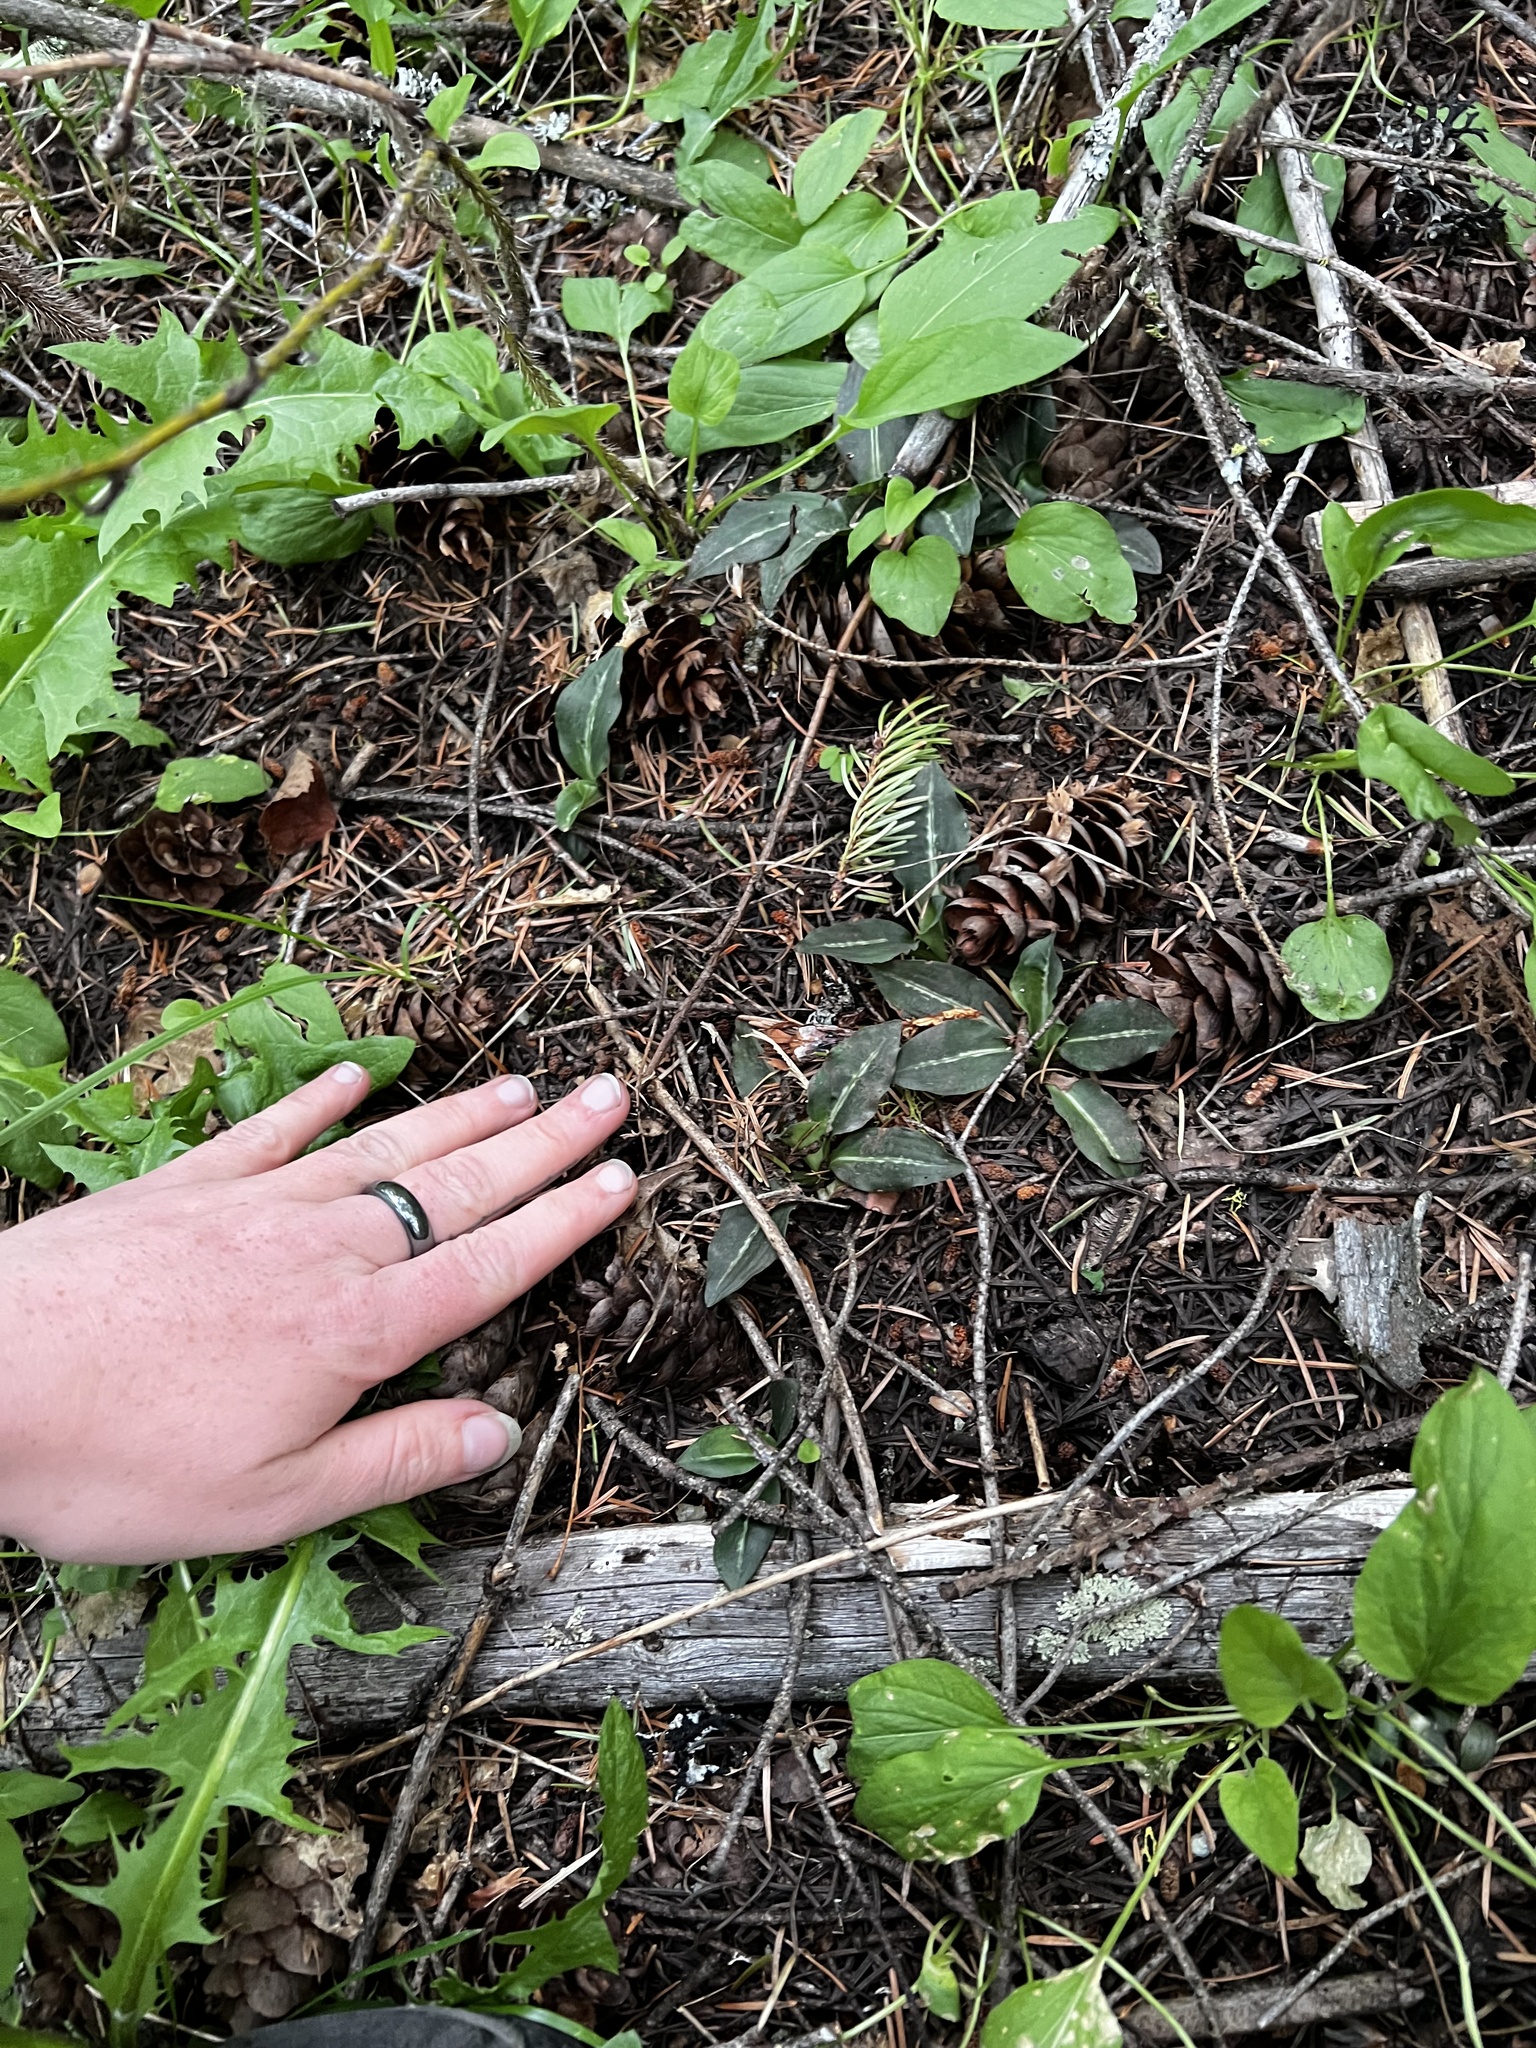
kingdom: Plantae
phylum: Tracheophyta
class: Liliopsida
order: Asparagales
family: Orchidaceae
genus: Goodyera
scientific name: Goodyera oblongifolia
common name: Giant rattlesnake-plantain
